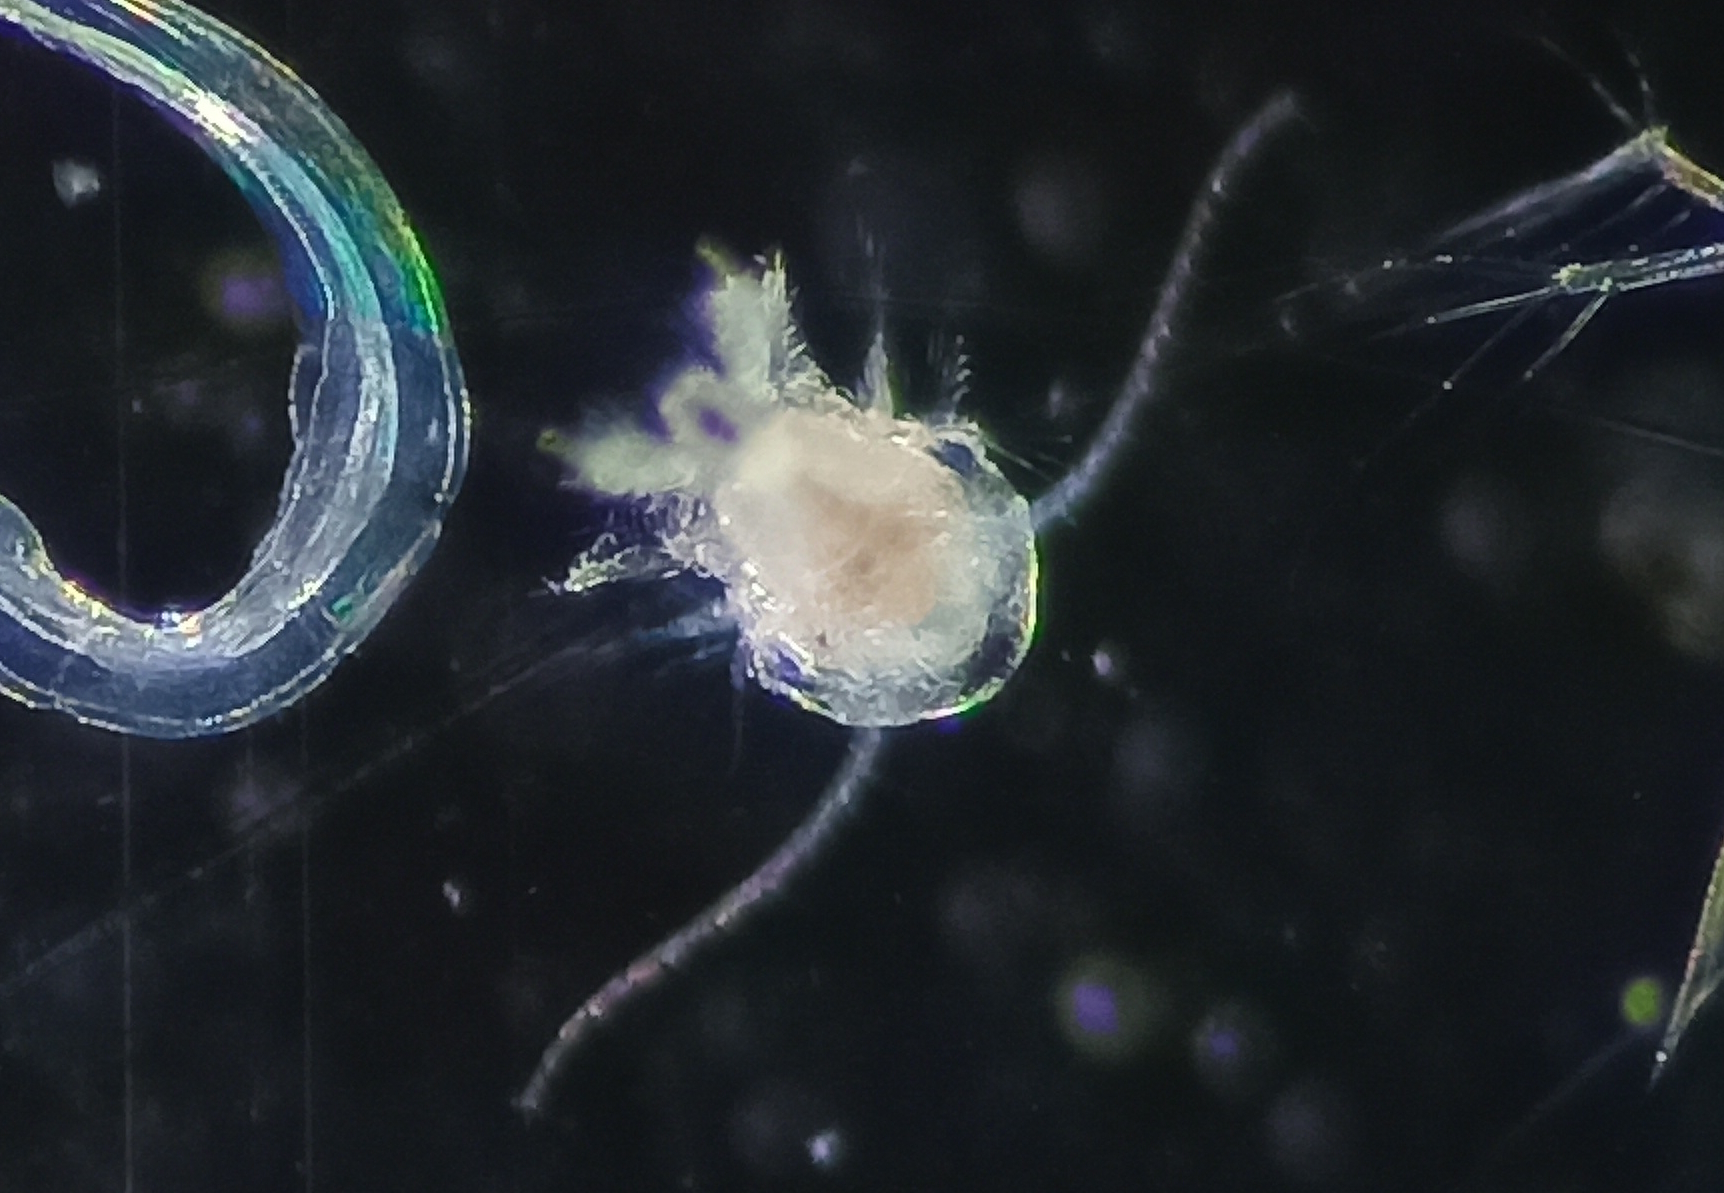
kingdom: Animalia
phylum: Arthropoda
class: Copepoda
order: Calanoida
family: Temoridae
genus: Temora
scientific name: Temora turbinata
